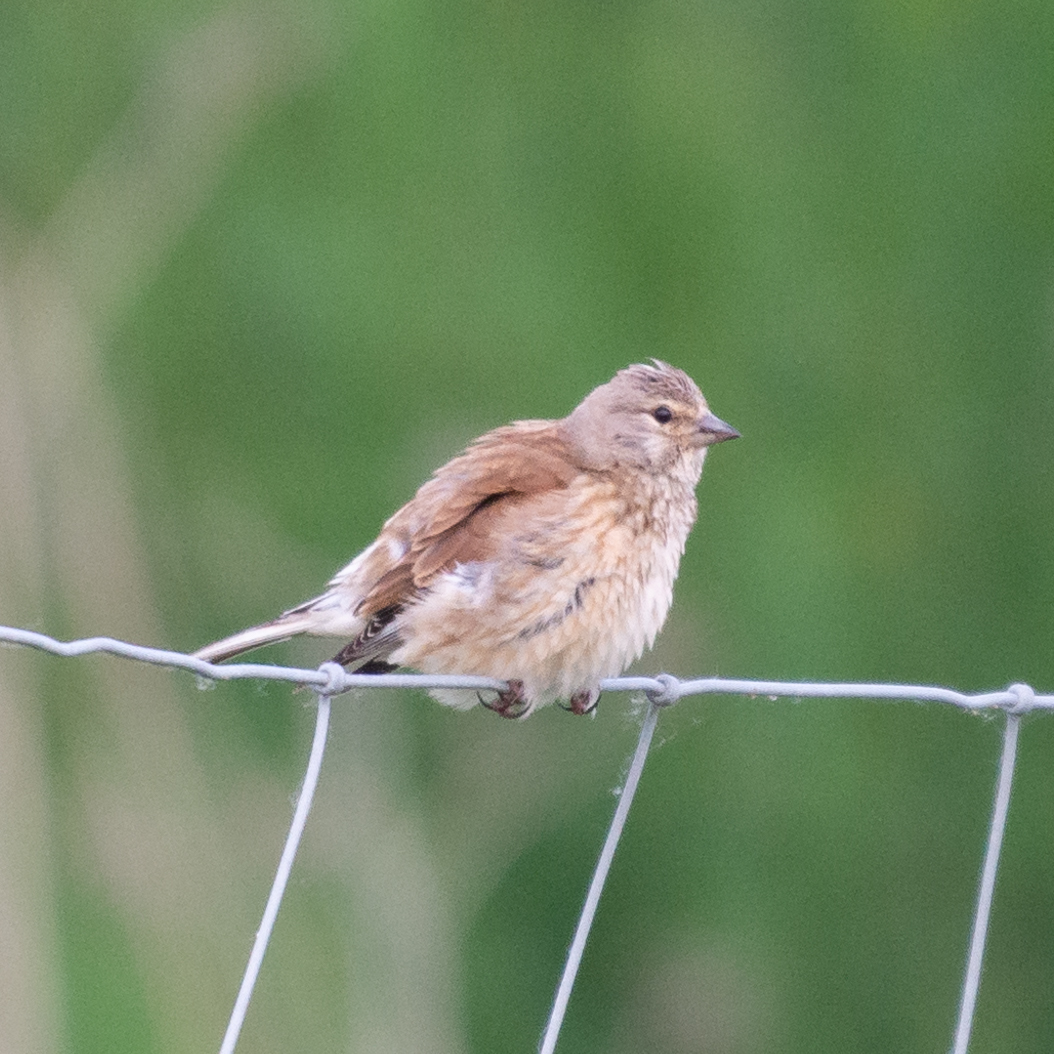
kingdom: Animalia
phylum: Chordata
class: Aves
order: Passeriformes
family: Fringillidae
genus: Linaria
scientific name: Linaria cannabina
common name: Common linnet
